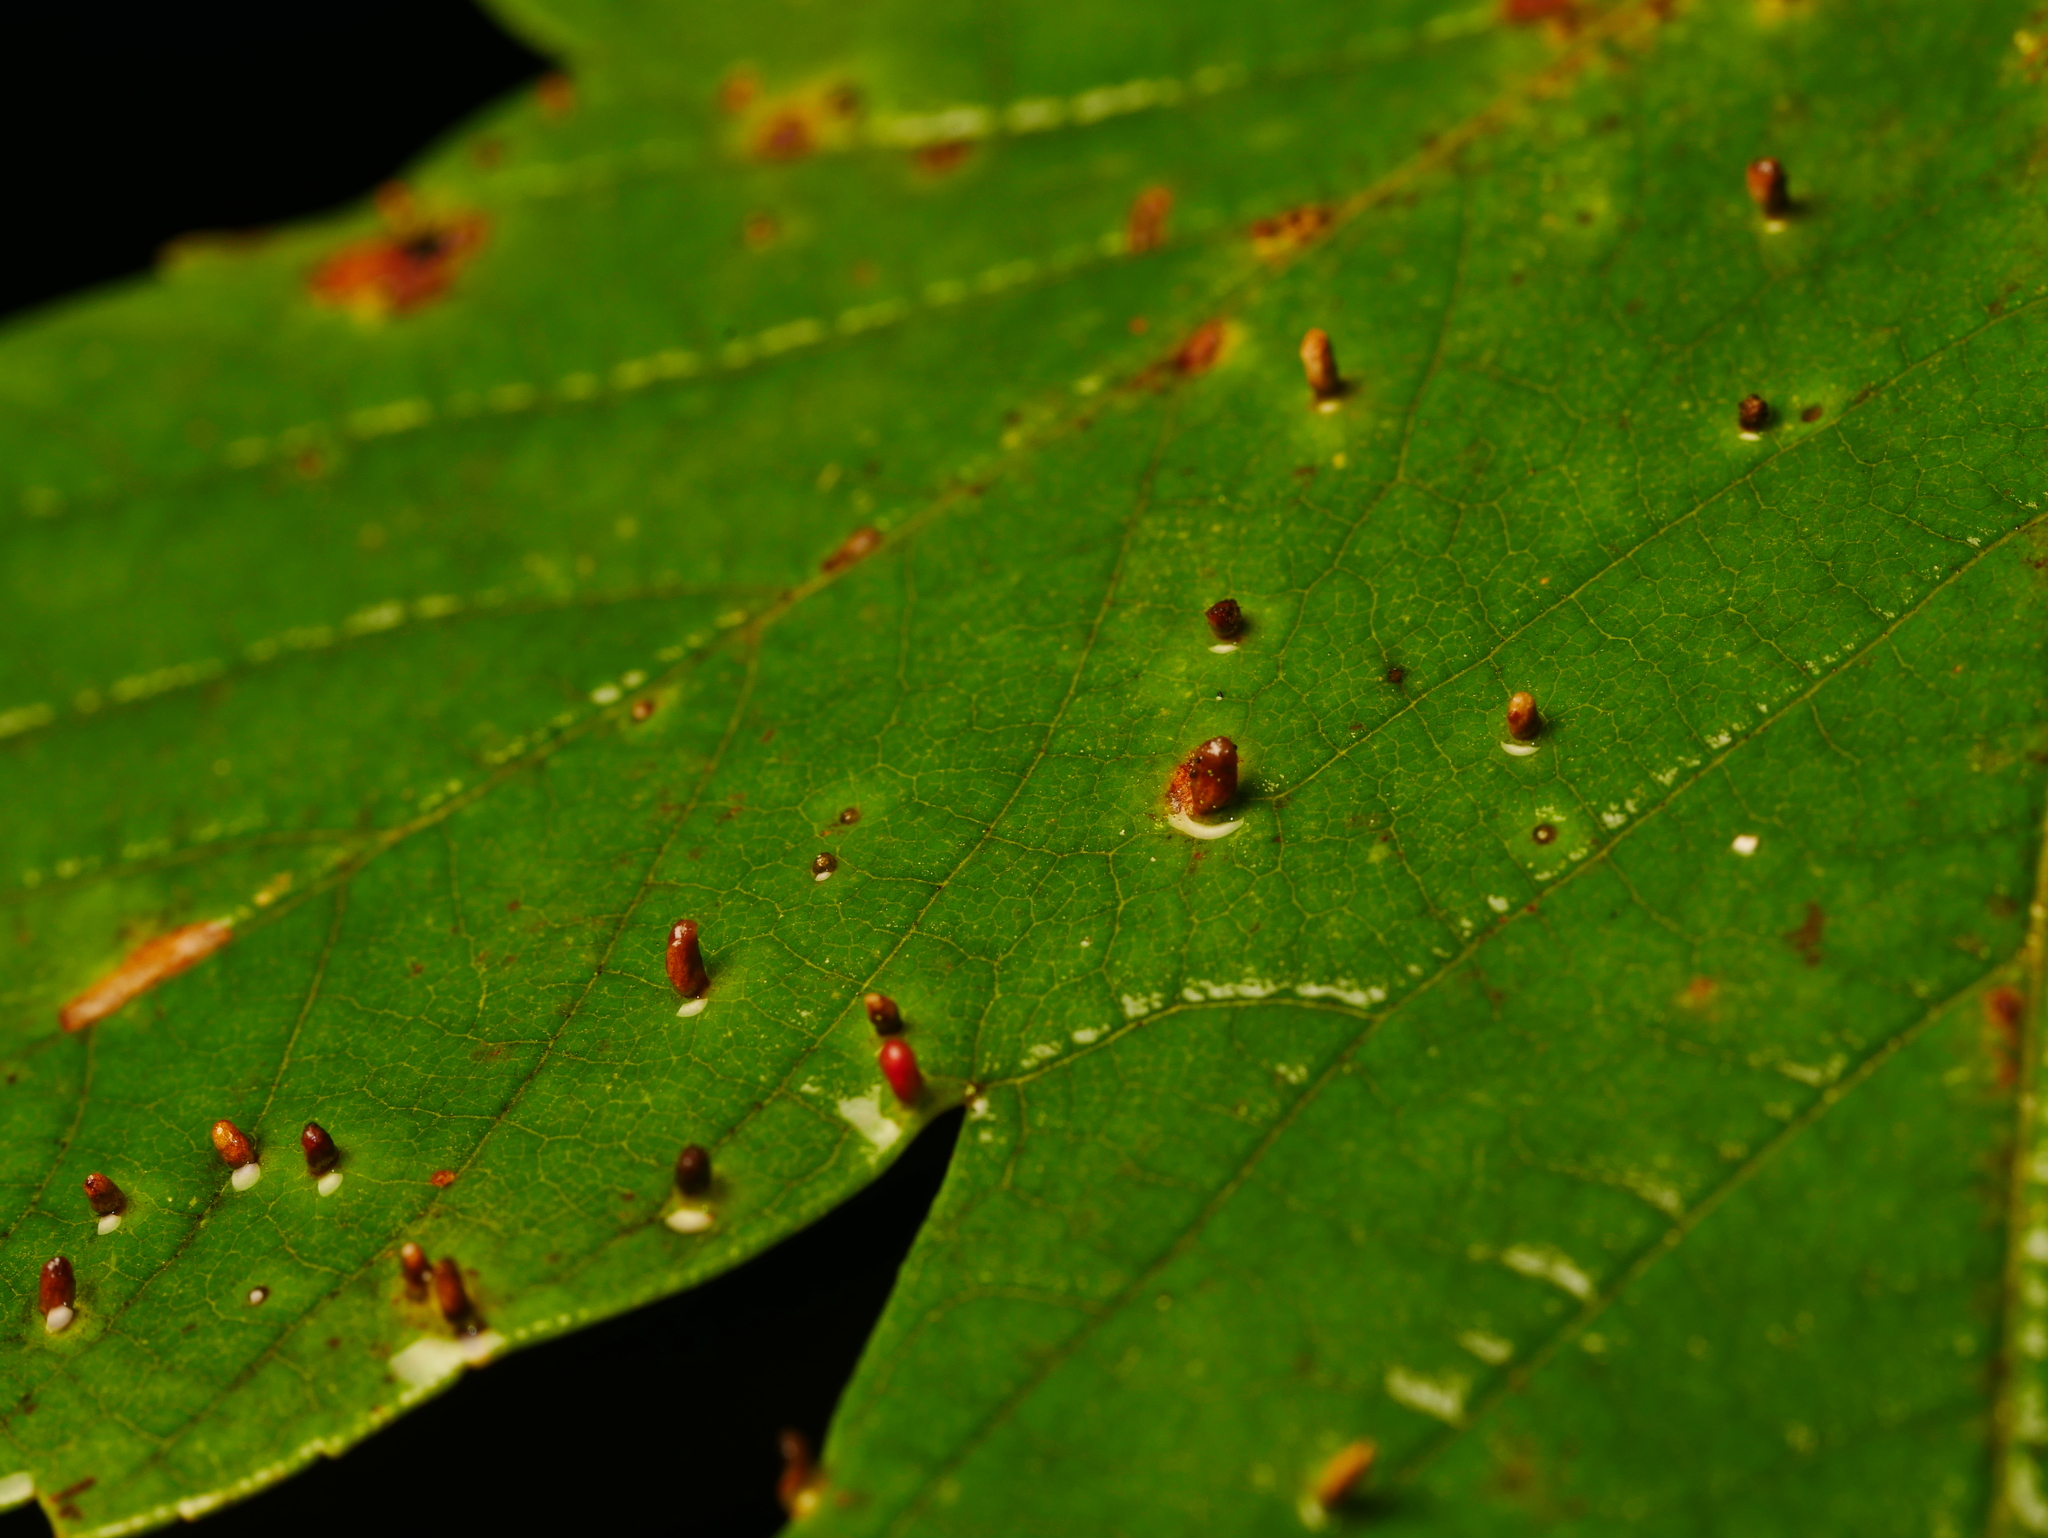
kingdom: Animalia
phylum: Arthropoda
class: Arachnida
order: Trombidiformes
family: Eriophyidae
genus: Aceria
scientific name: Aceria cephaloneus
